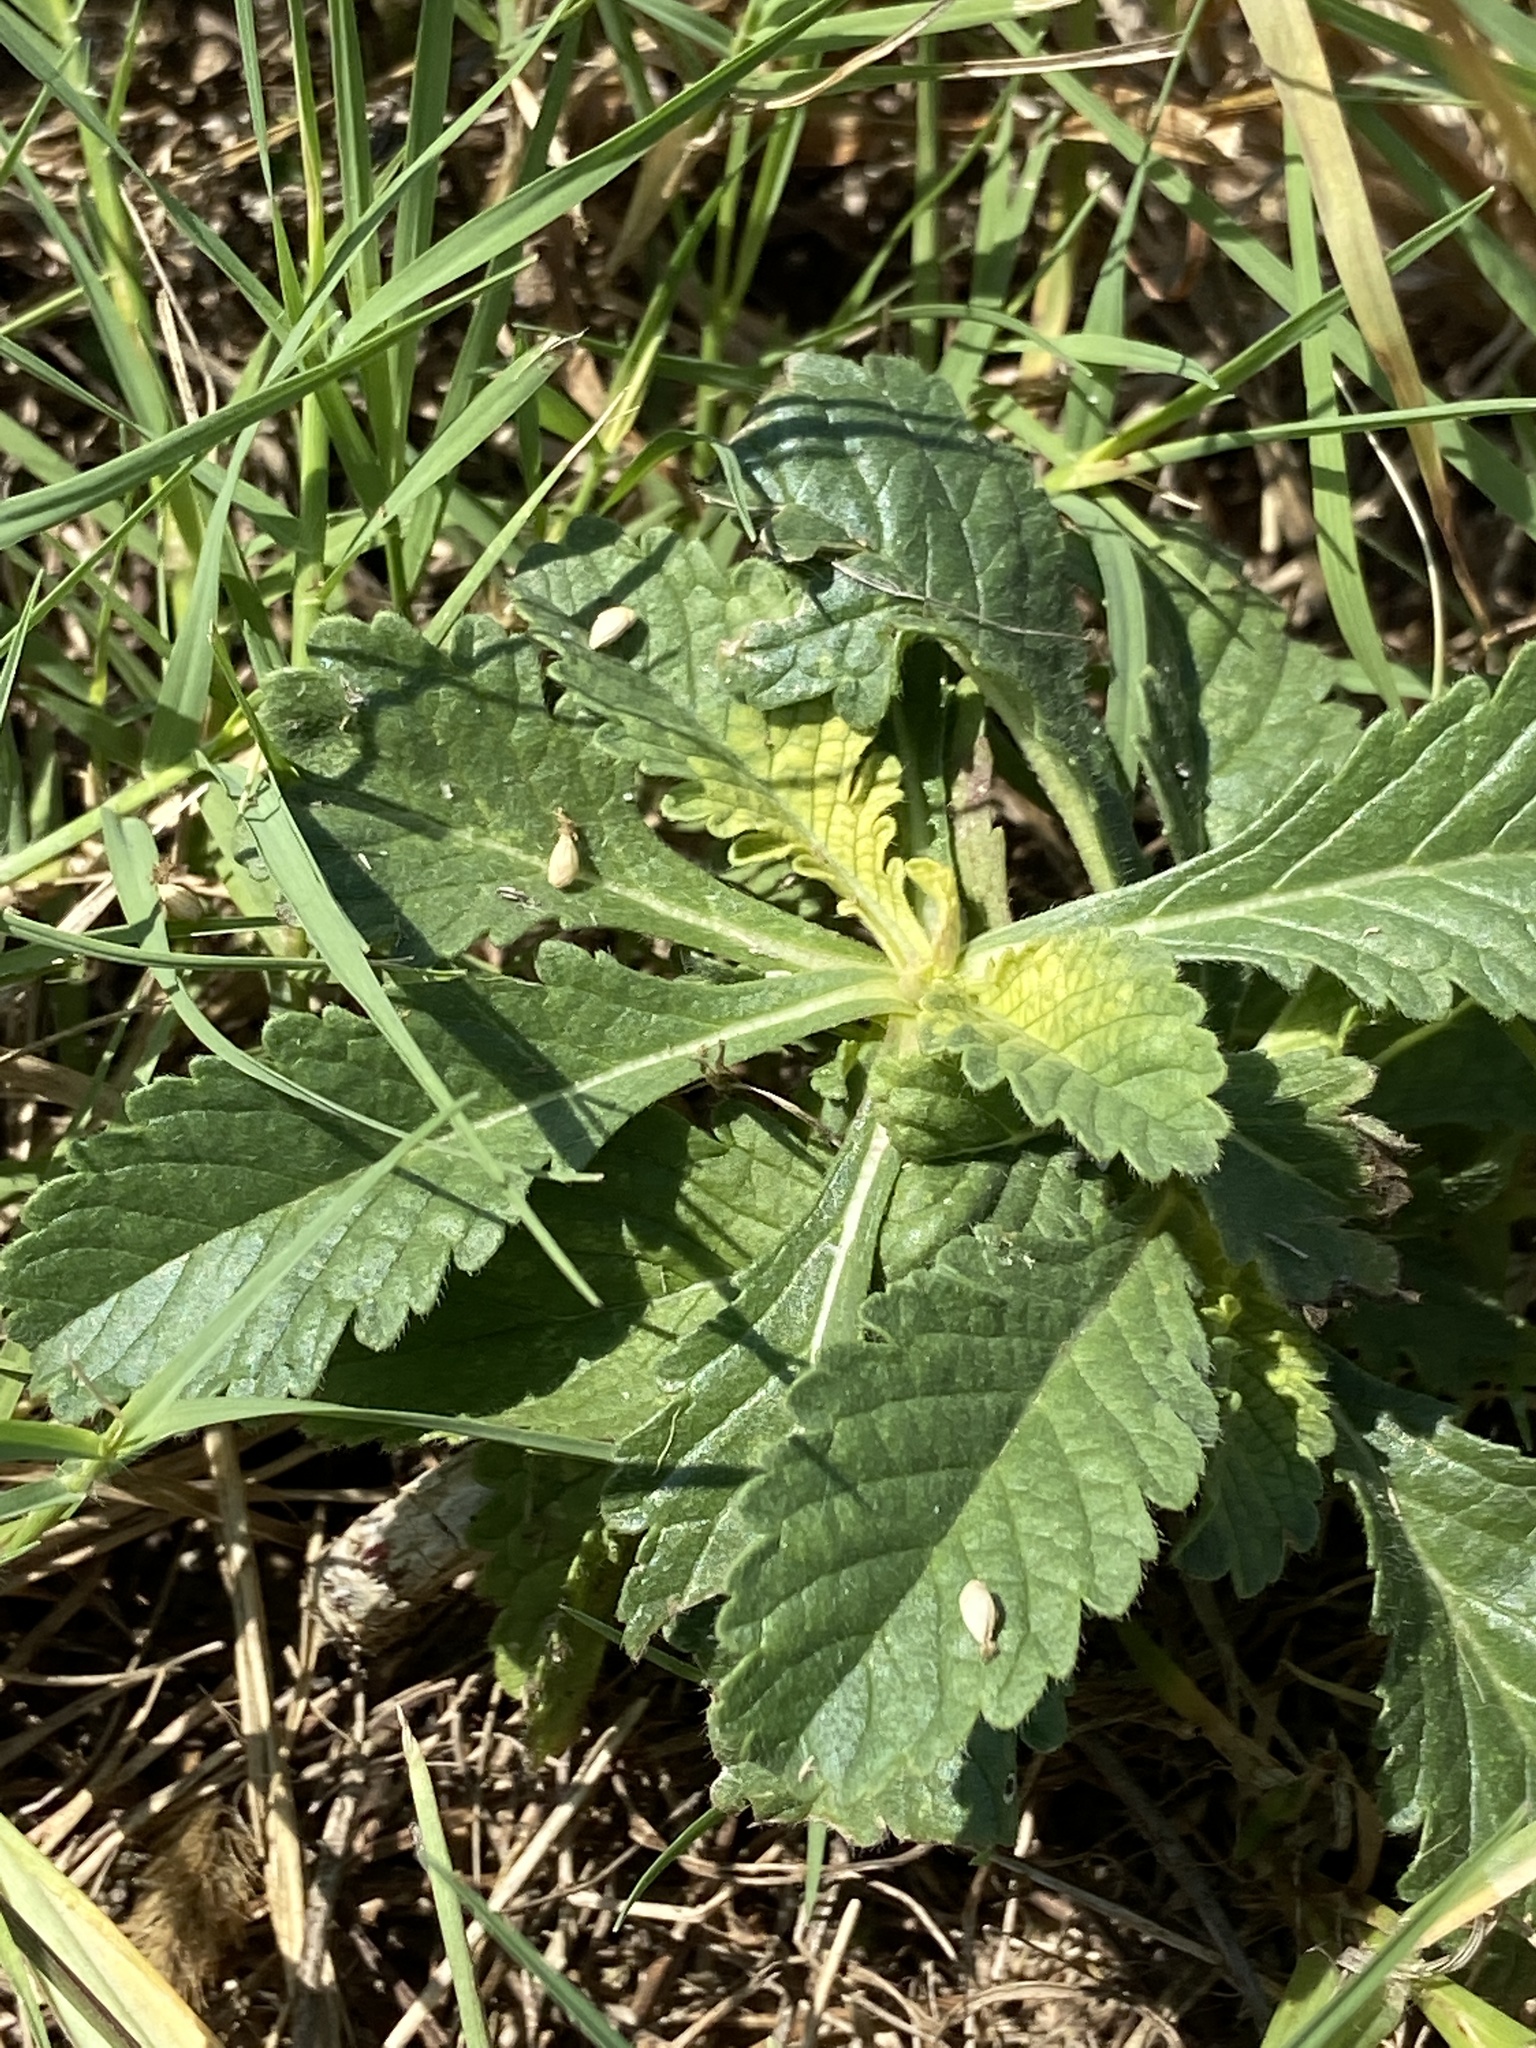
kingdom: Plantae
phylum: Tracheophyta
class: Magnoliopsida
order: Dipsacales
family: Caprifoliaceae
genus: Sixalix
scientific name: Sixalix atropurpurea
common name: Sweet scabious
